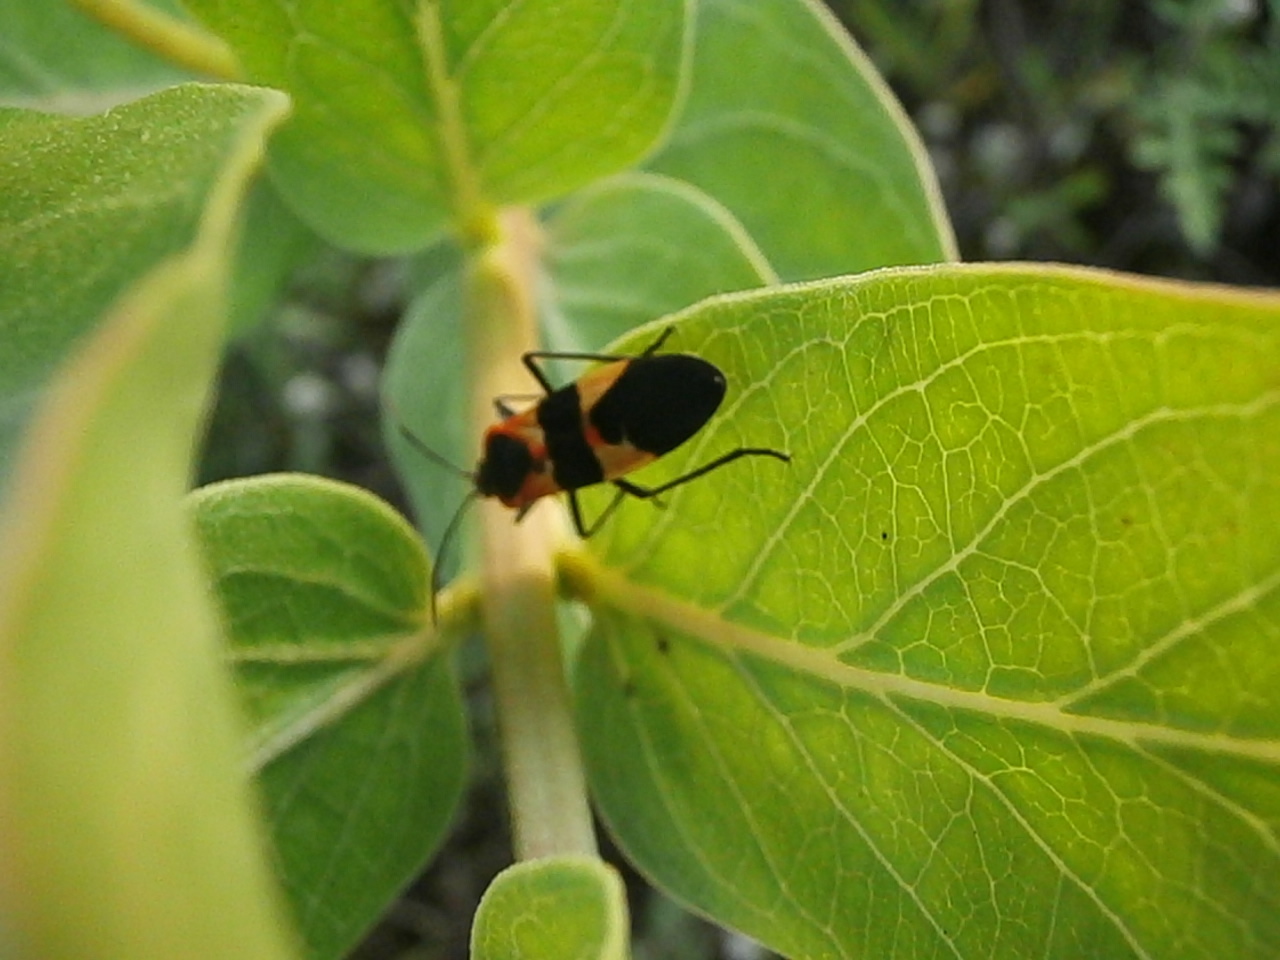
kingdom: Animalia
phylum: Arthropoda
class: Insecta
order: Hemiptera
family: Lygaeidae
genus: Oncopeltus
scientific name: Oncopeltus fasciatus
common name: Large milkweed bug
